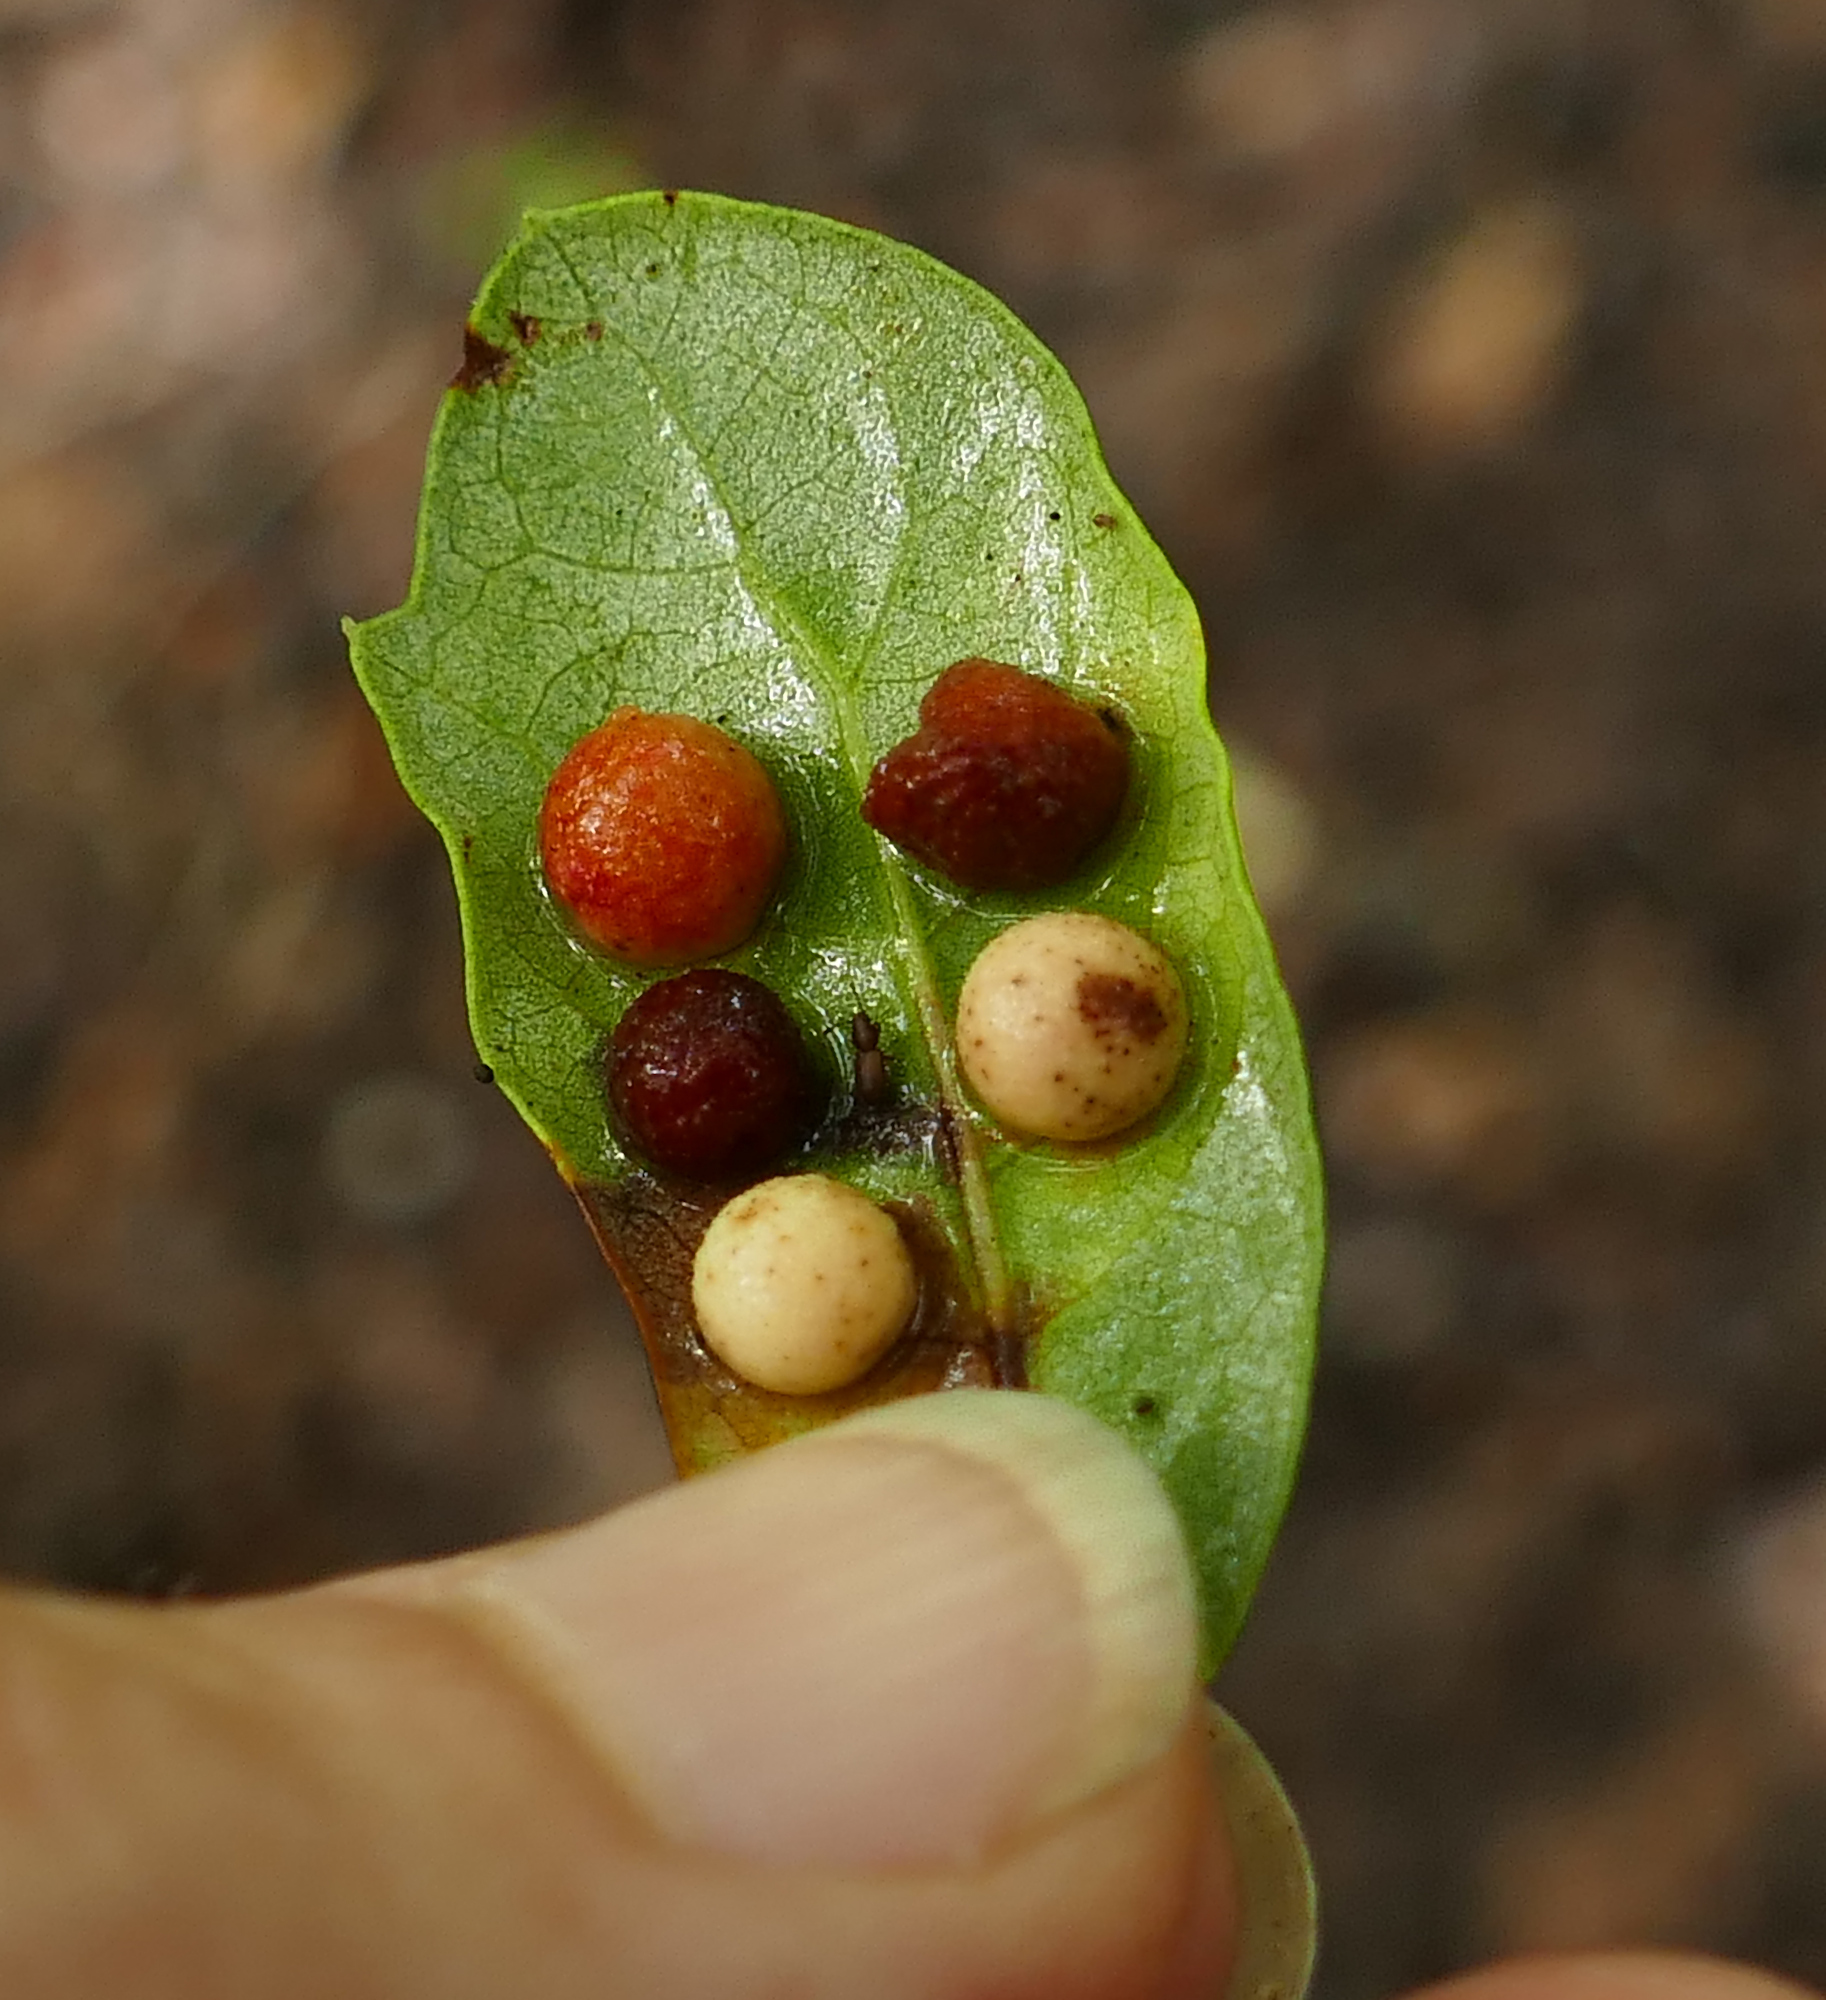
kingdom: Animalia
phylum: Arthropoda
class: Insecta
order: Hymenoptera
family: Cynipidae
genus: Belonocnema
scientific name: Belonocnema kinseyi
